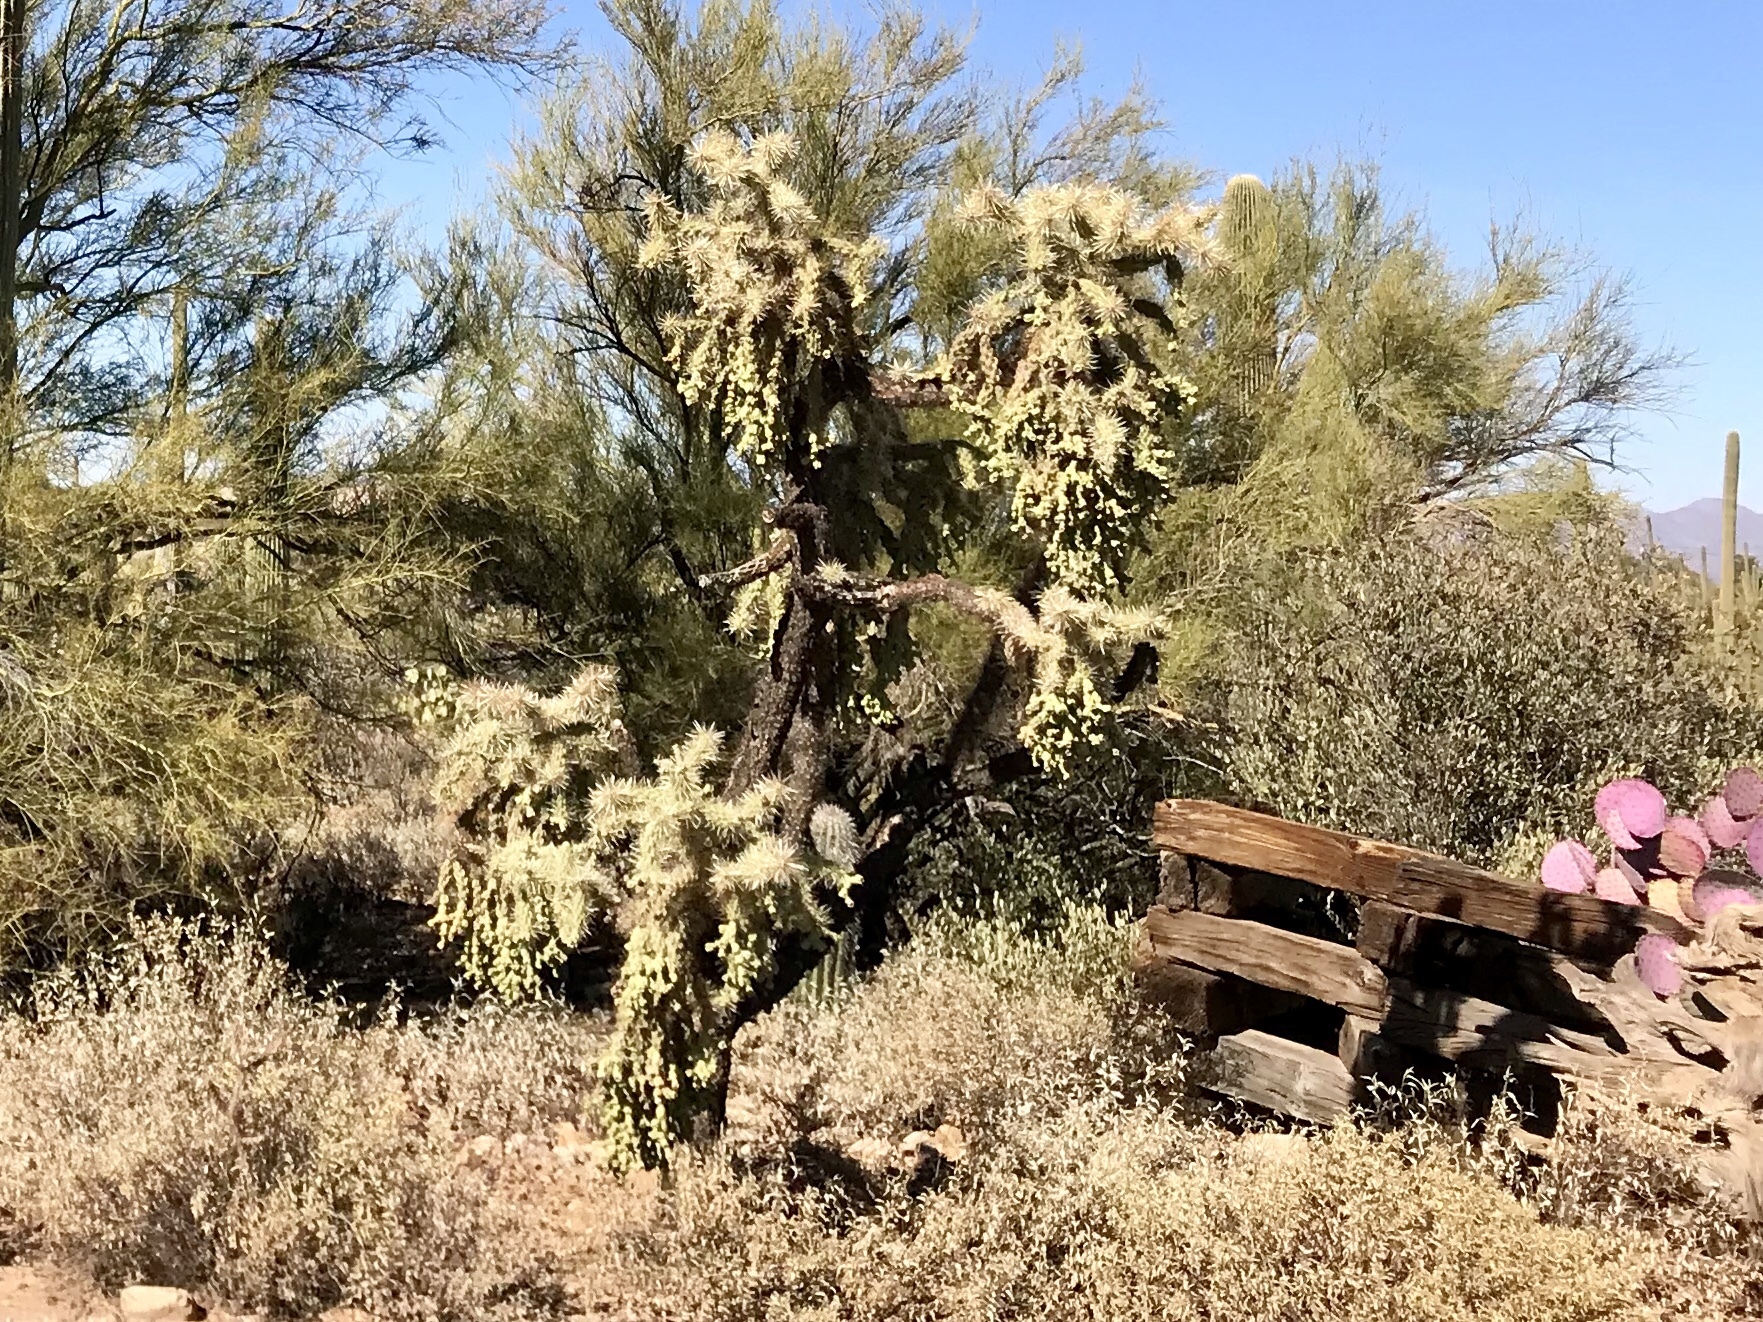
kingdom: Plantae
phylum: Tracheophyta
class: Magnoliopsida
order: Caryophyllales
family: Cactaceae
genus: Cylindropuntia
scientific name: Cylindropuntia fulgida
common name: Jumping cholla
